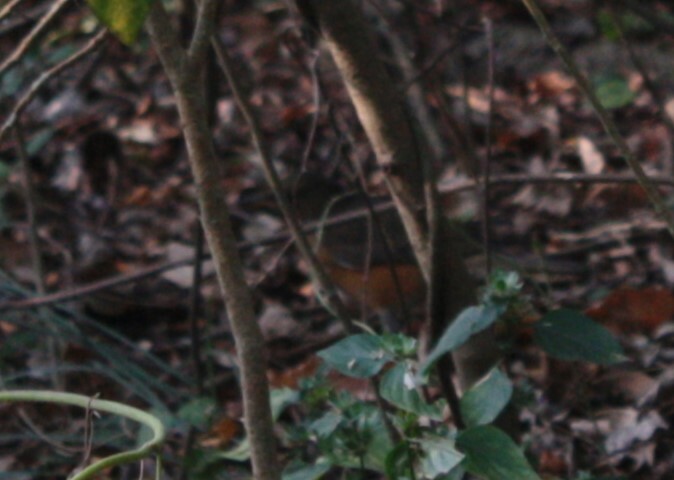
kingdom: Animalia
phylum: Chordata
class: Aves
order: Passeriformes
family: Turdidae
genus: Turdus
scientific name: Turdus chrysolaus
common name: Brown-headed thrush
